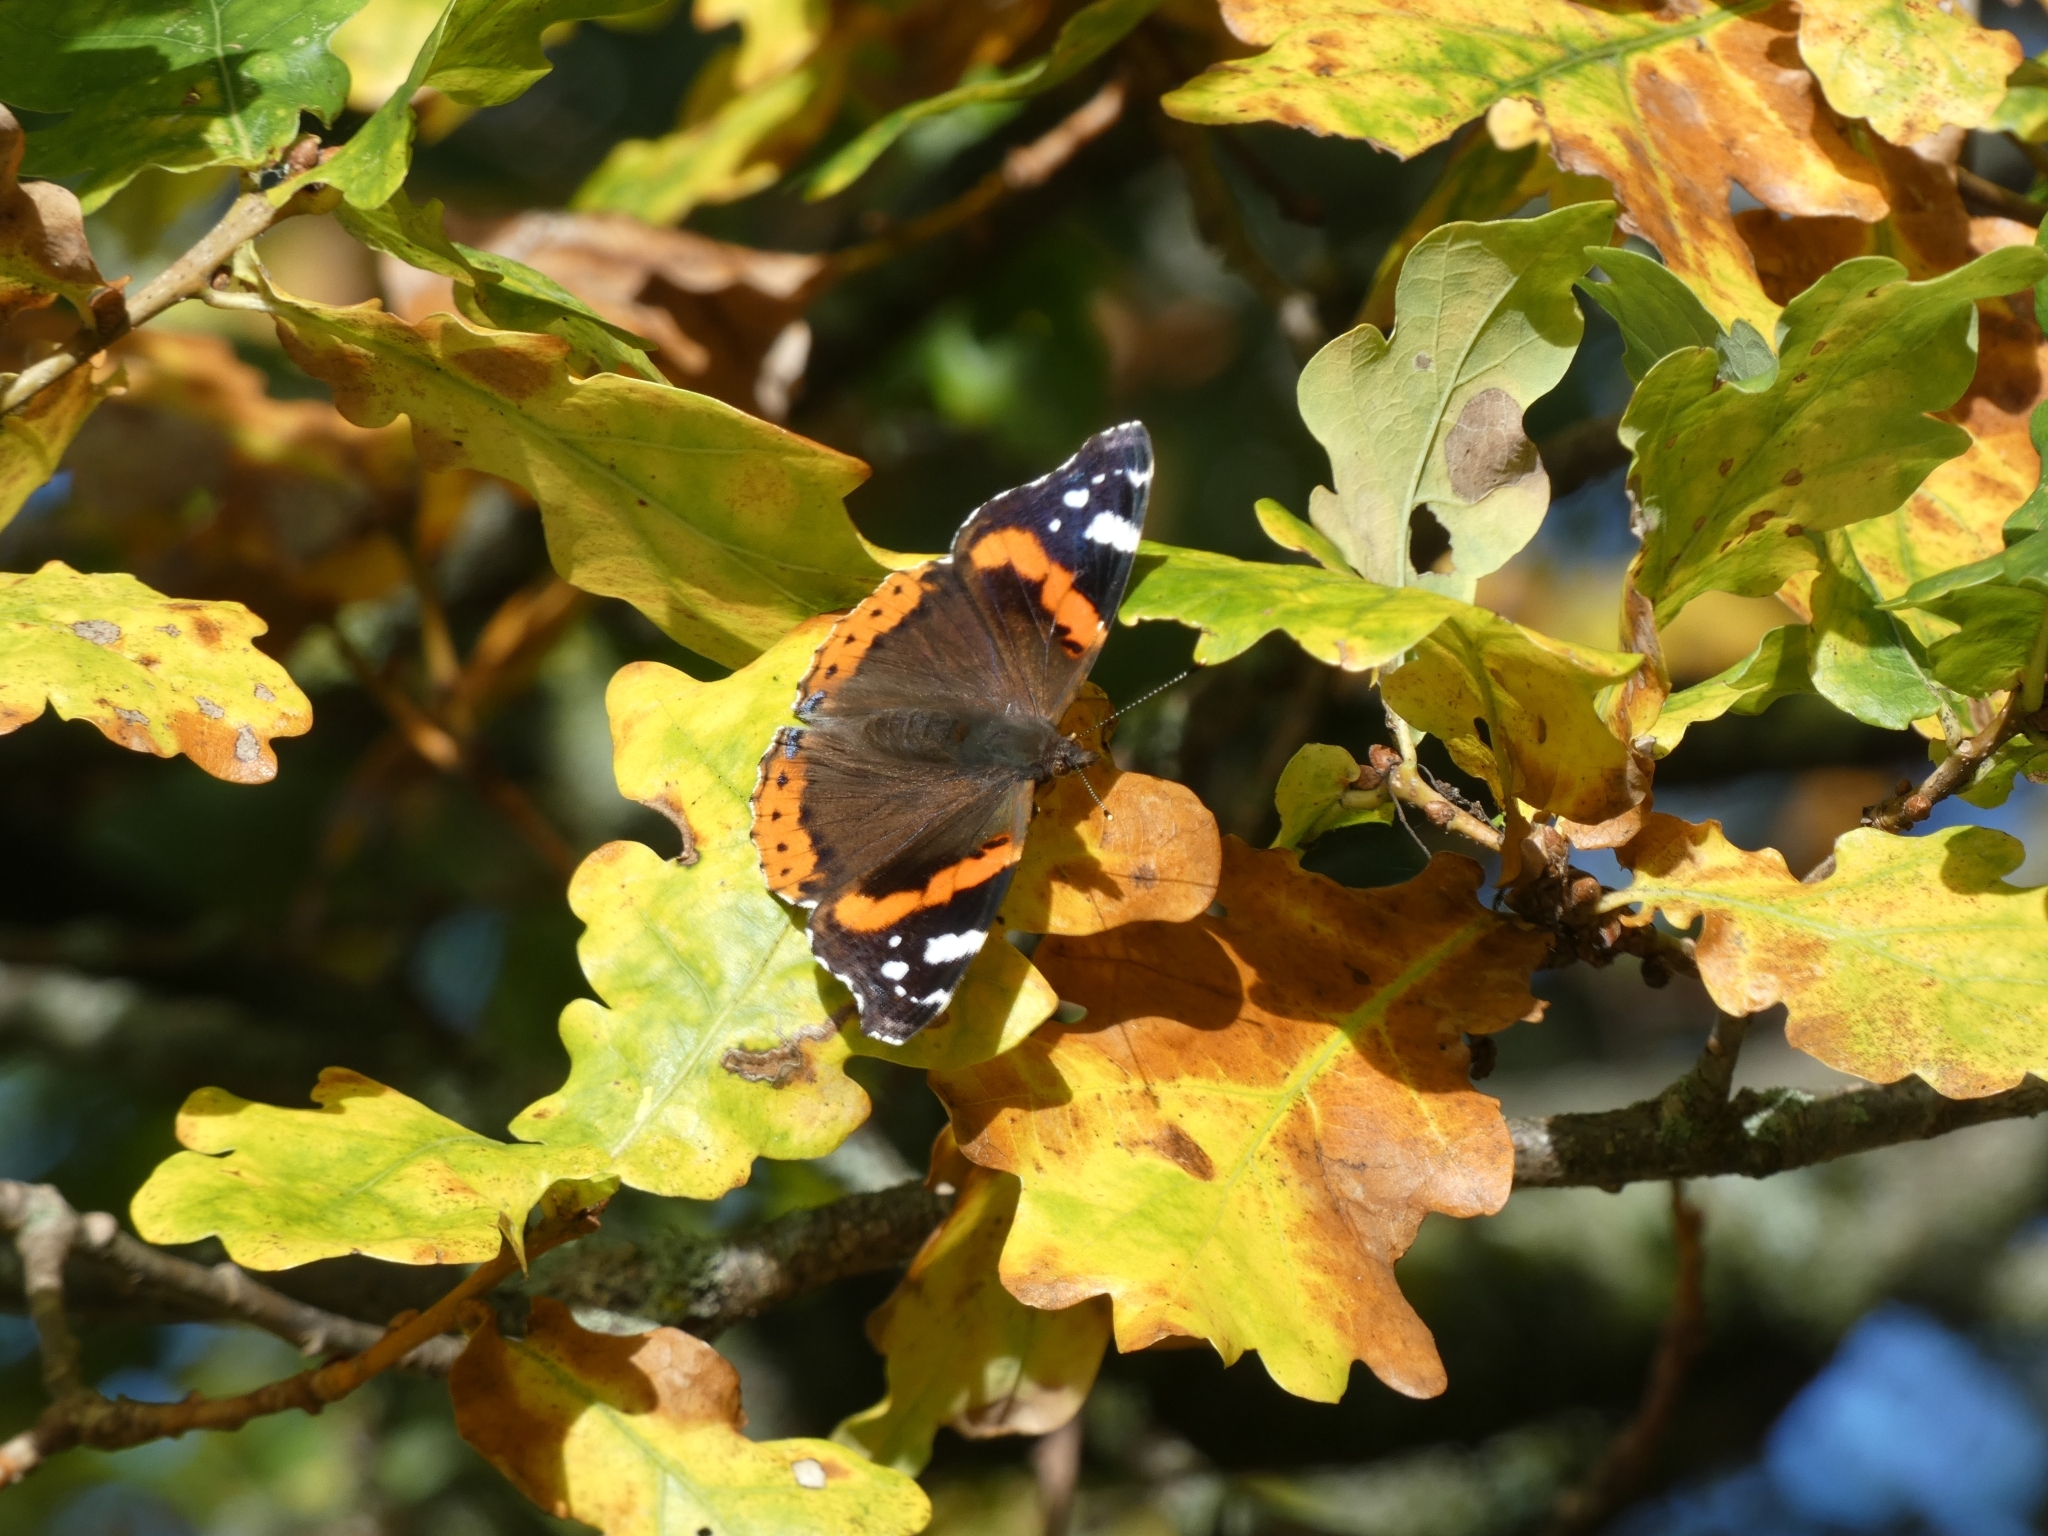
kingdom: Animalia
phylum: Arthropoda
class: Insecta
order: Lepidoptera
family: Nymphalidae
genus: Vanessa
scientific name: Vanessa atalanta
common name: Red admiral
